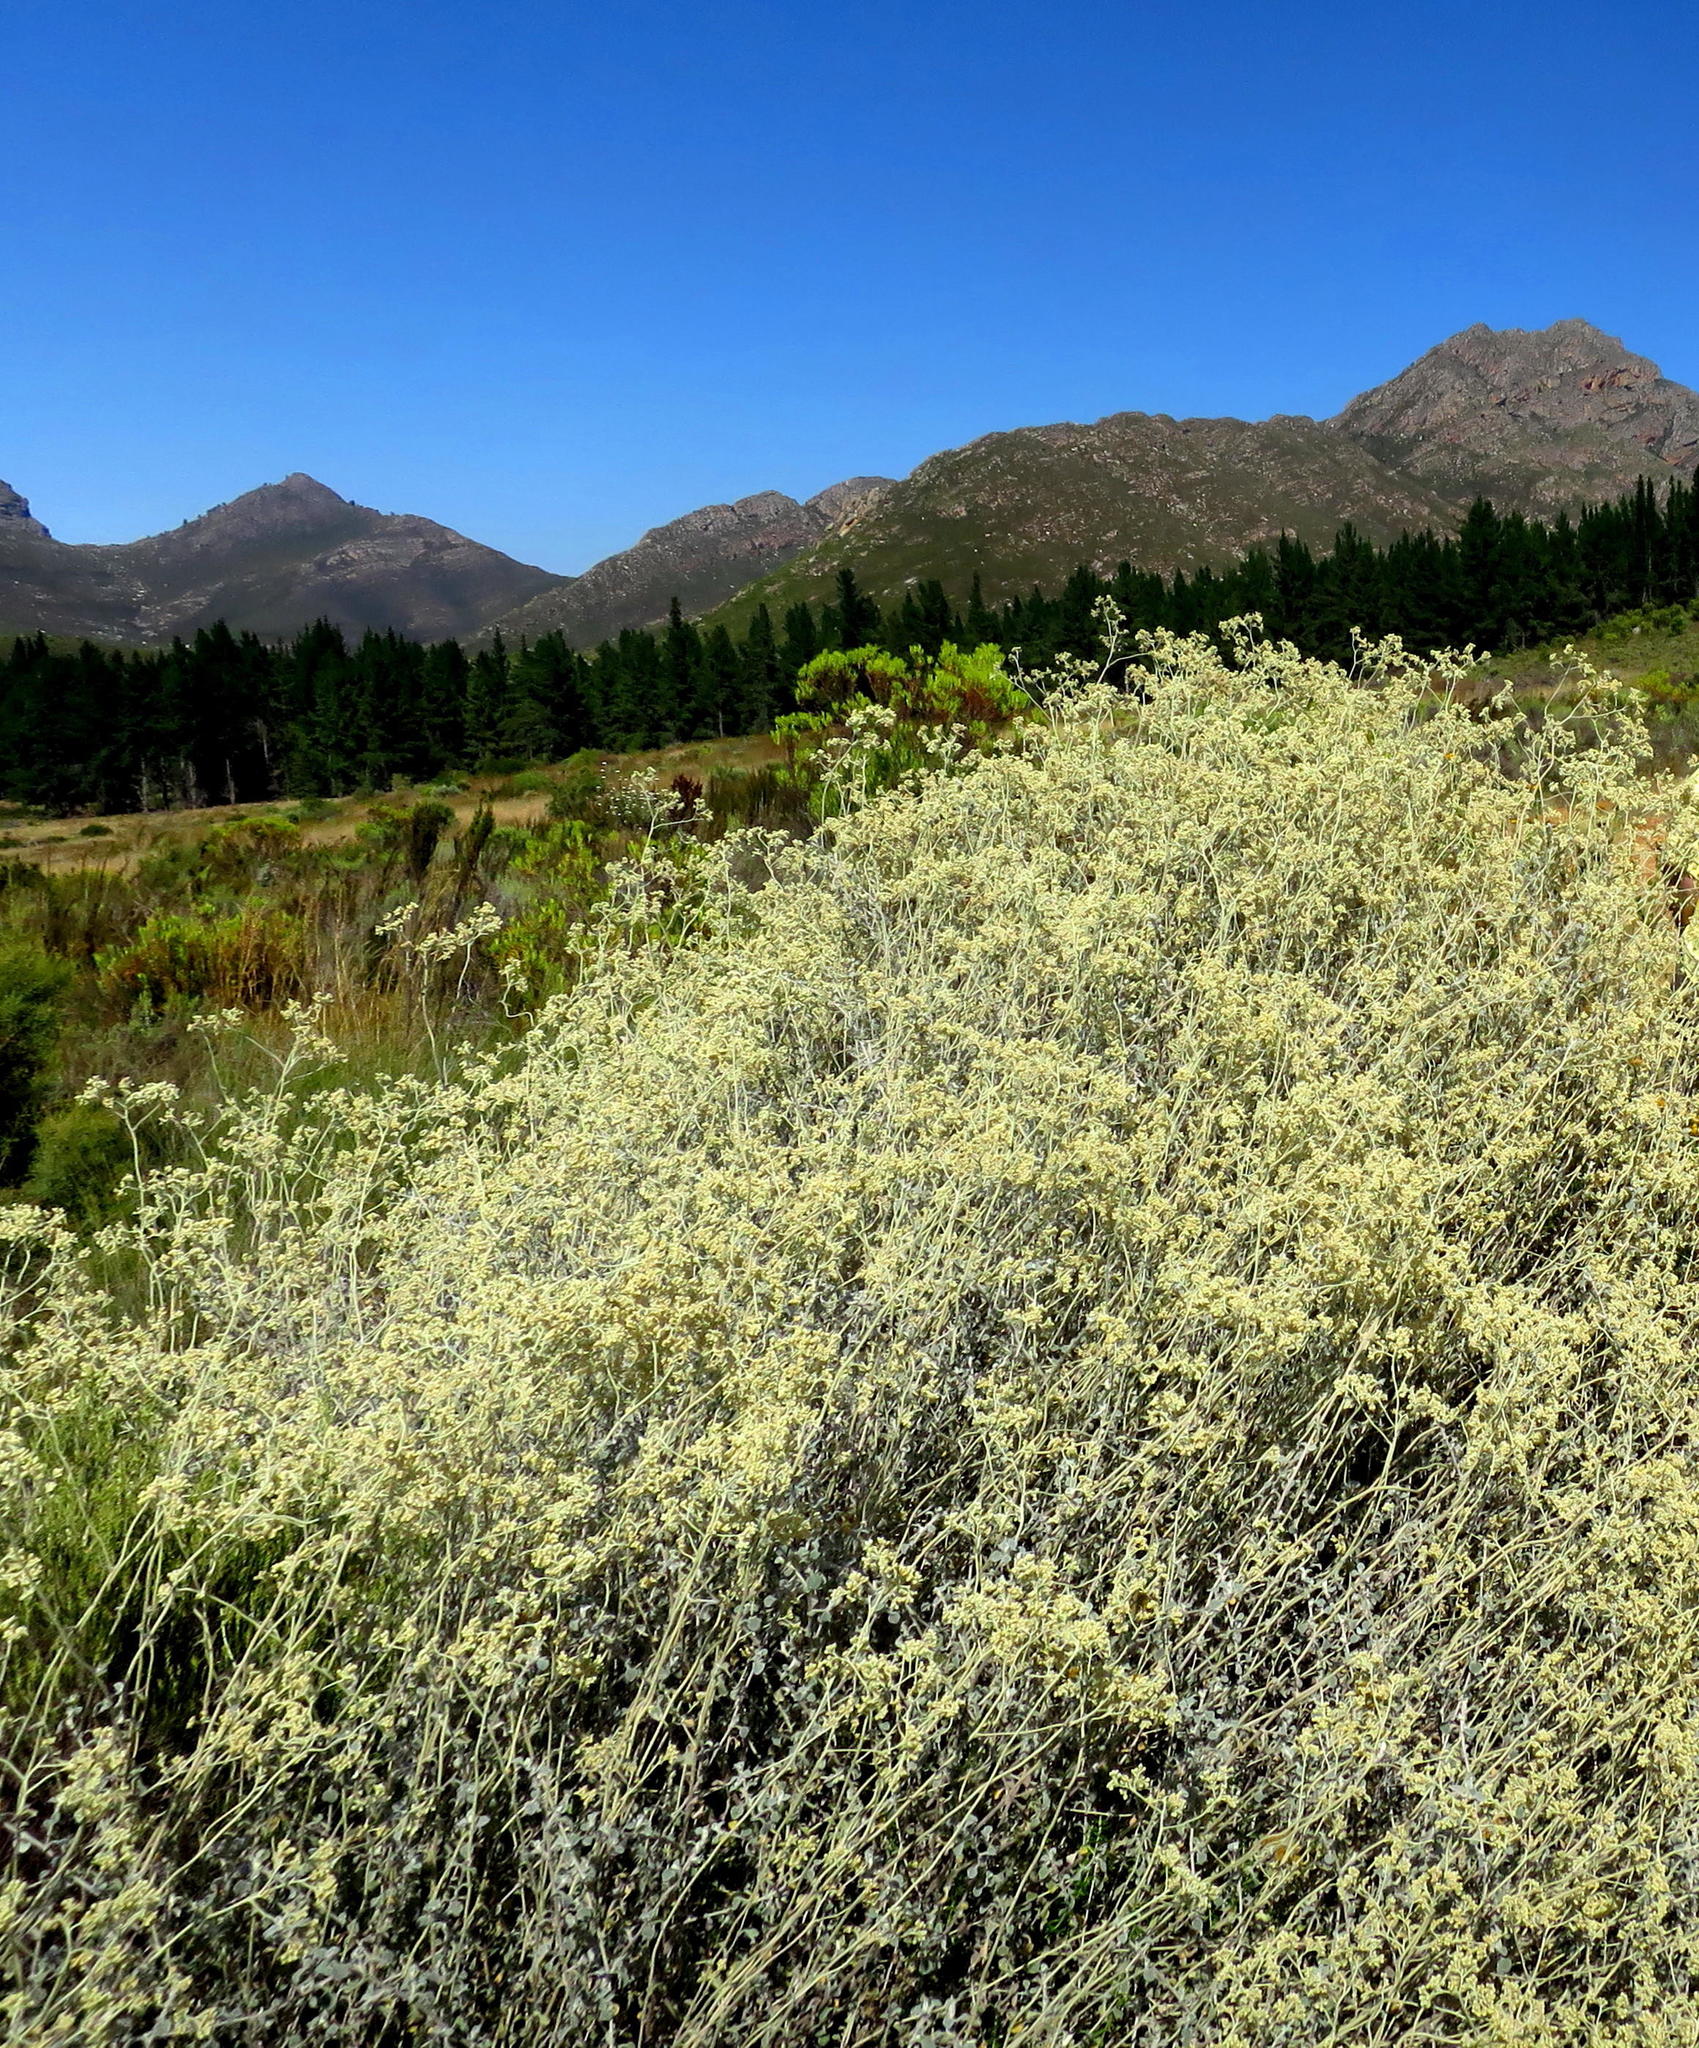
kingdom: Plantae
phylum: Tracheophyta
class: Magnoliopsida
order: Asterales
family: Asteraceae
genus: Helichrysum
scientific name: Helichrysum petiolare
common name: Licorice-plant
